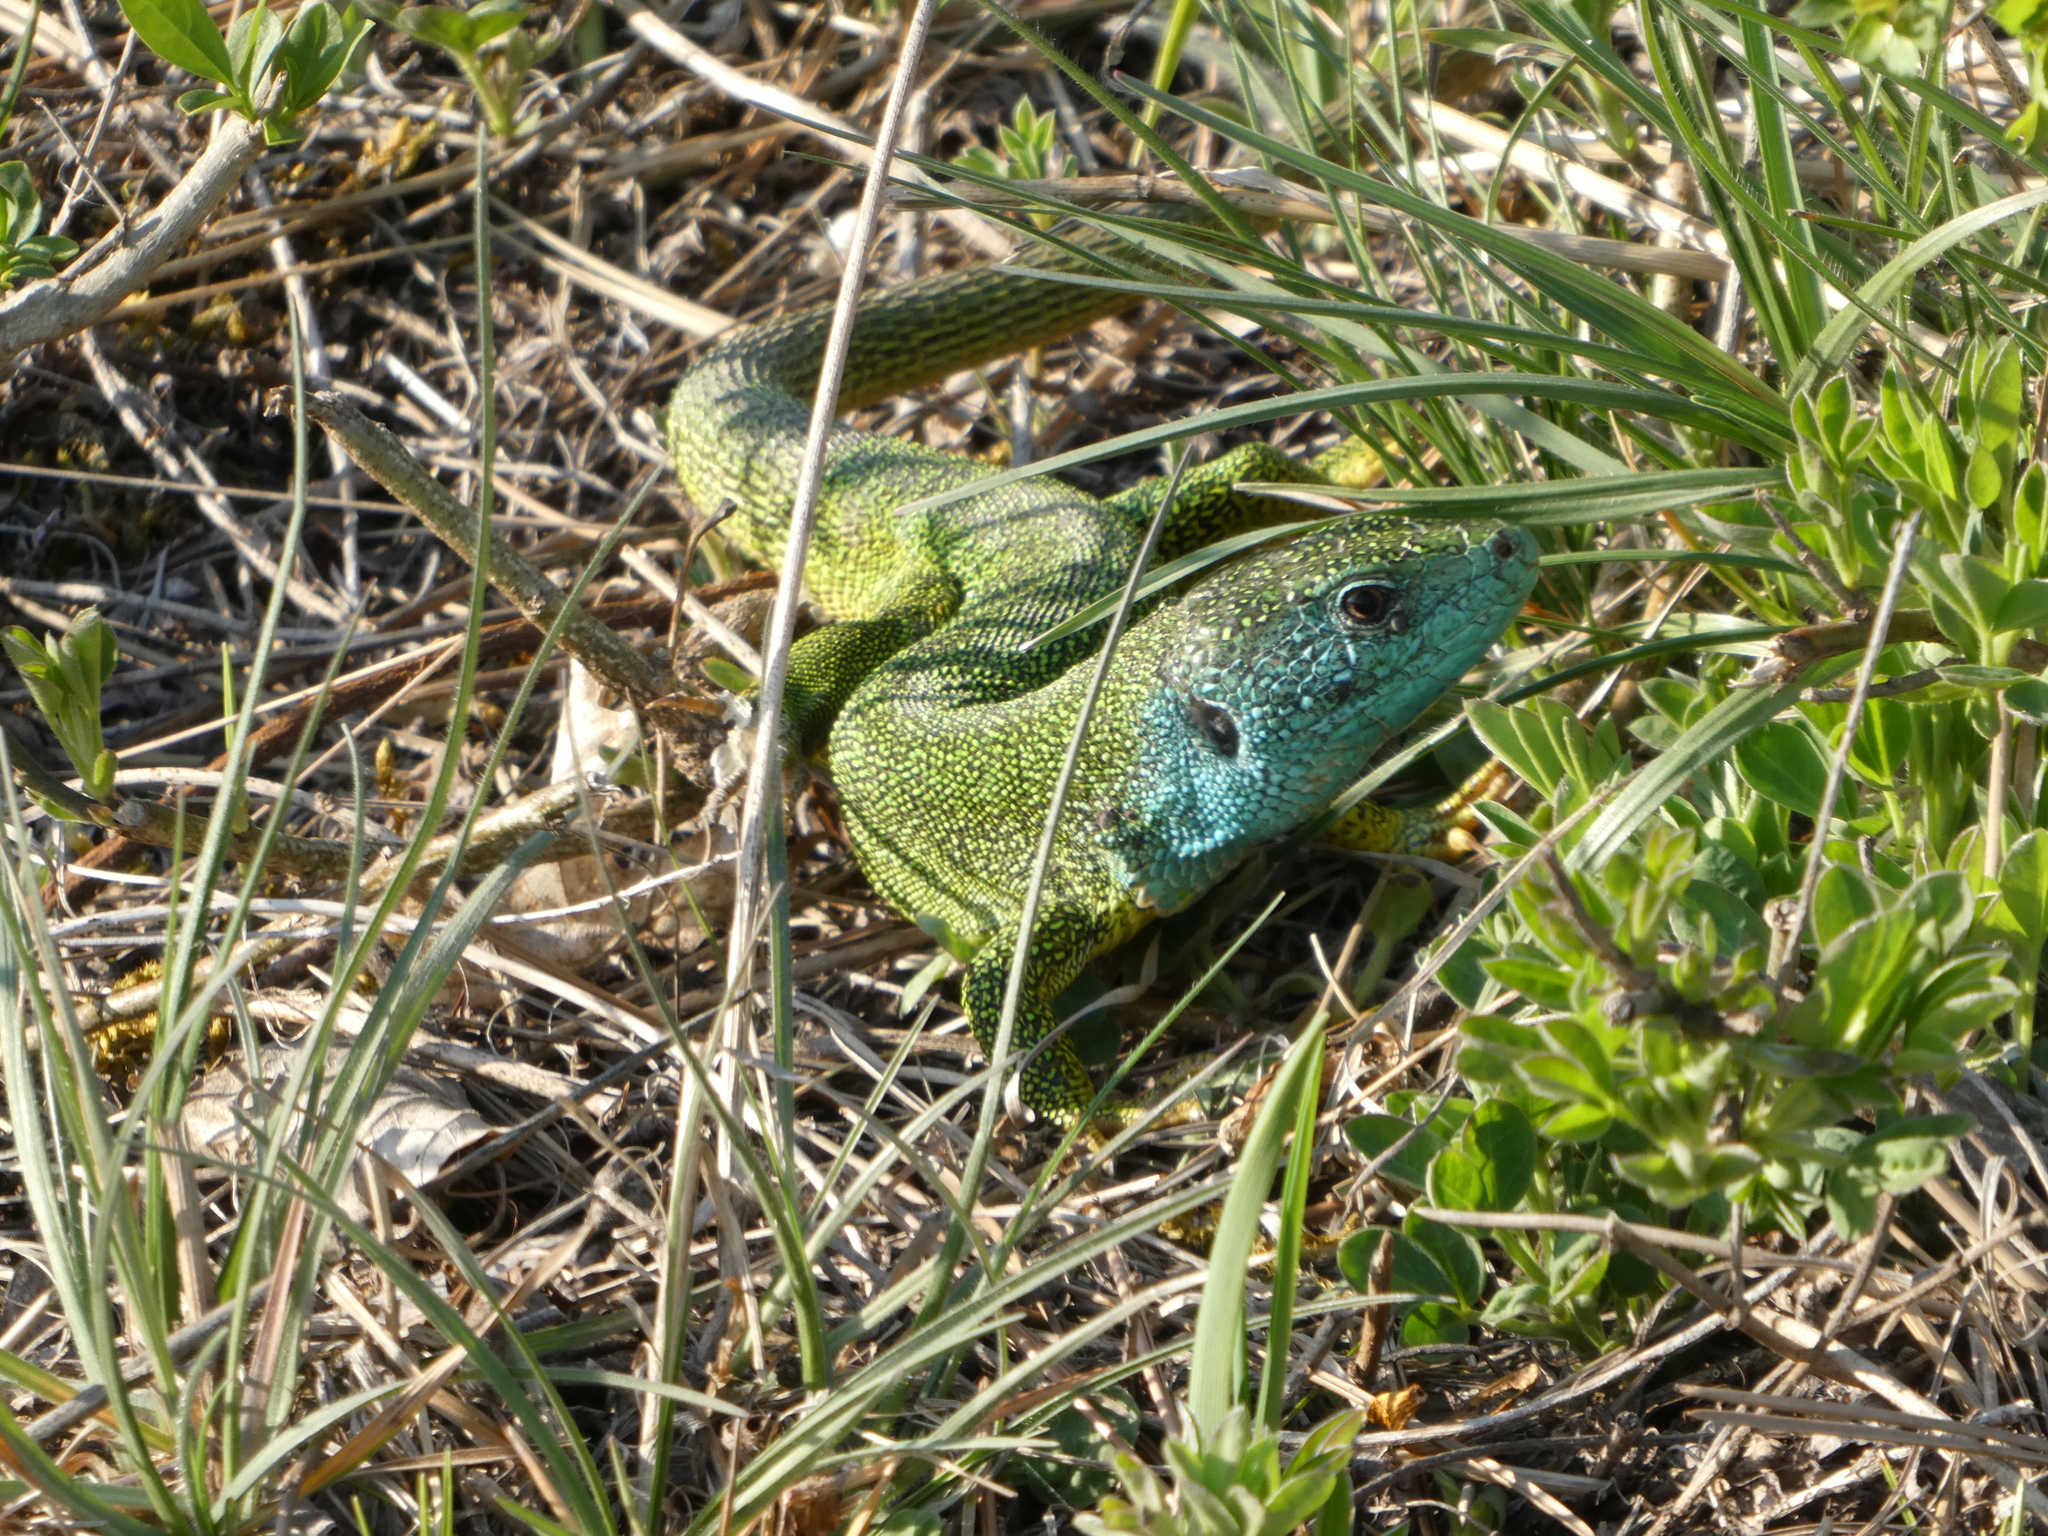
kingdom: Animalia
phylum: Chordata
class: Squamata
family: Lacertidae
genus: Lacerta
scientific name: Lacerta viridis
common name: European green lizard
